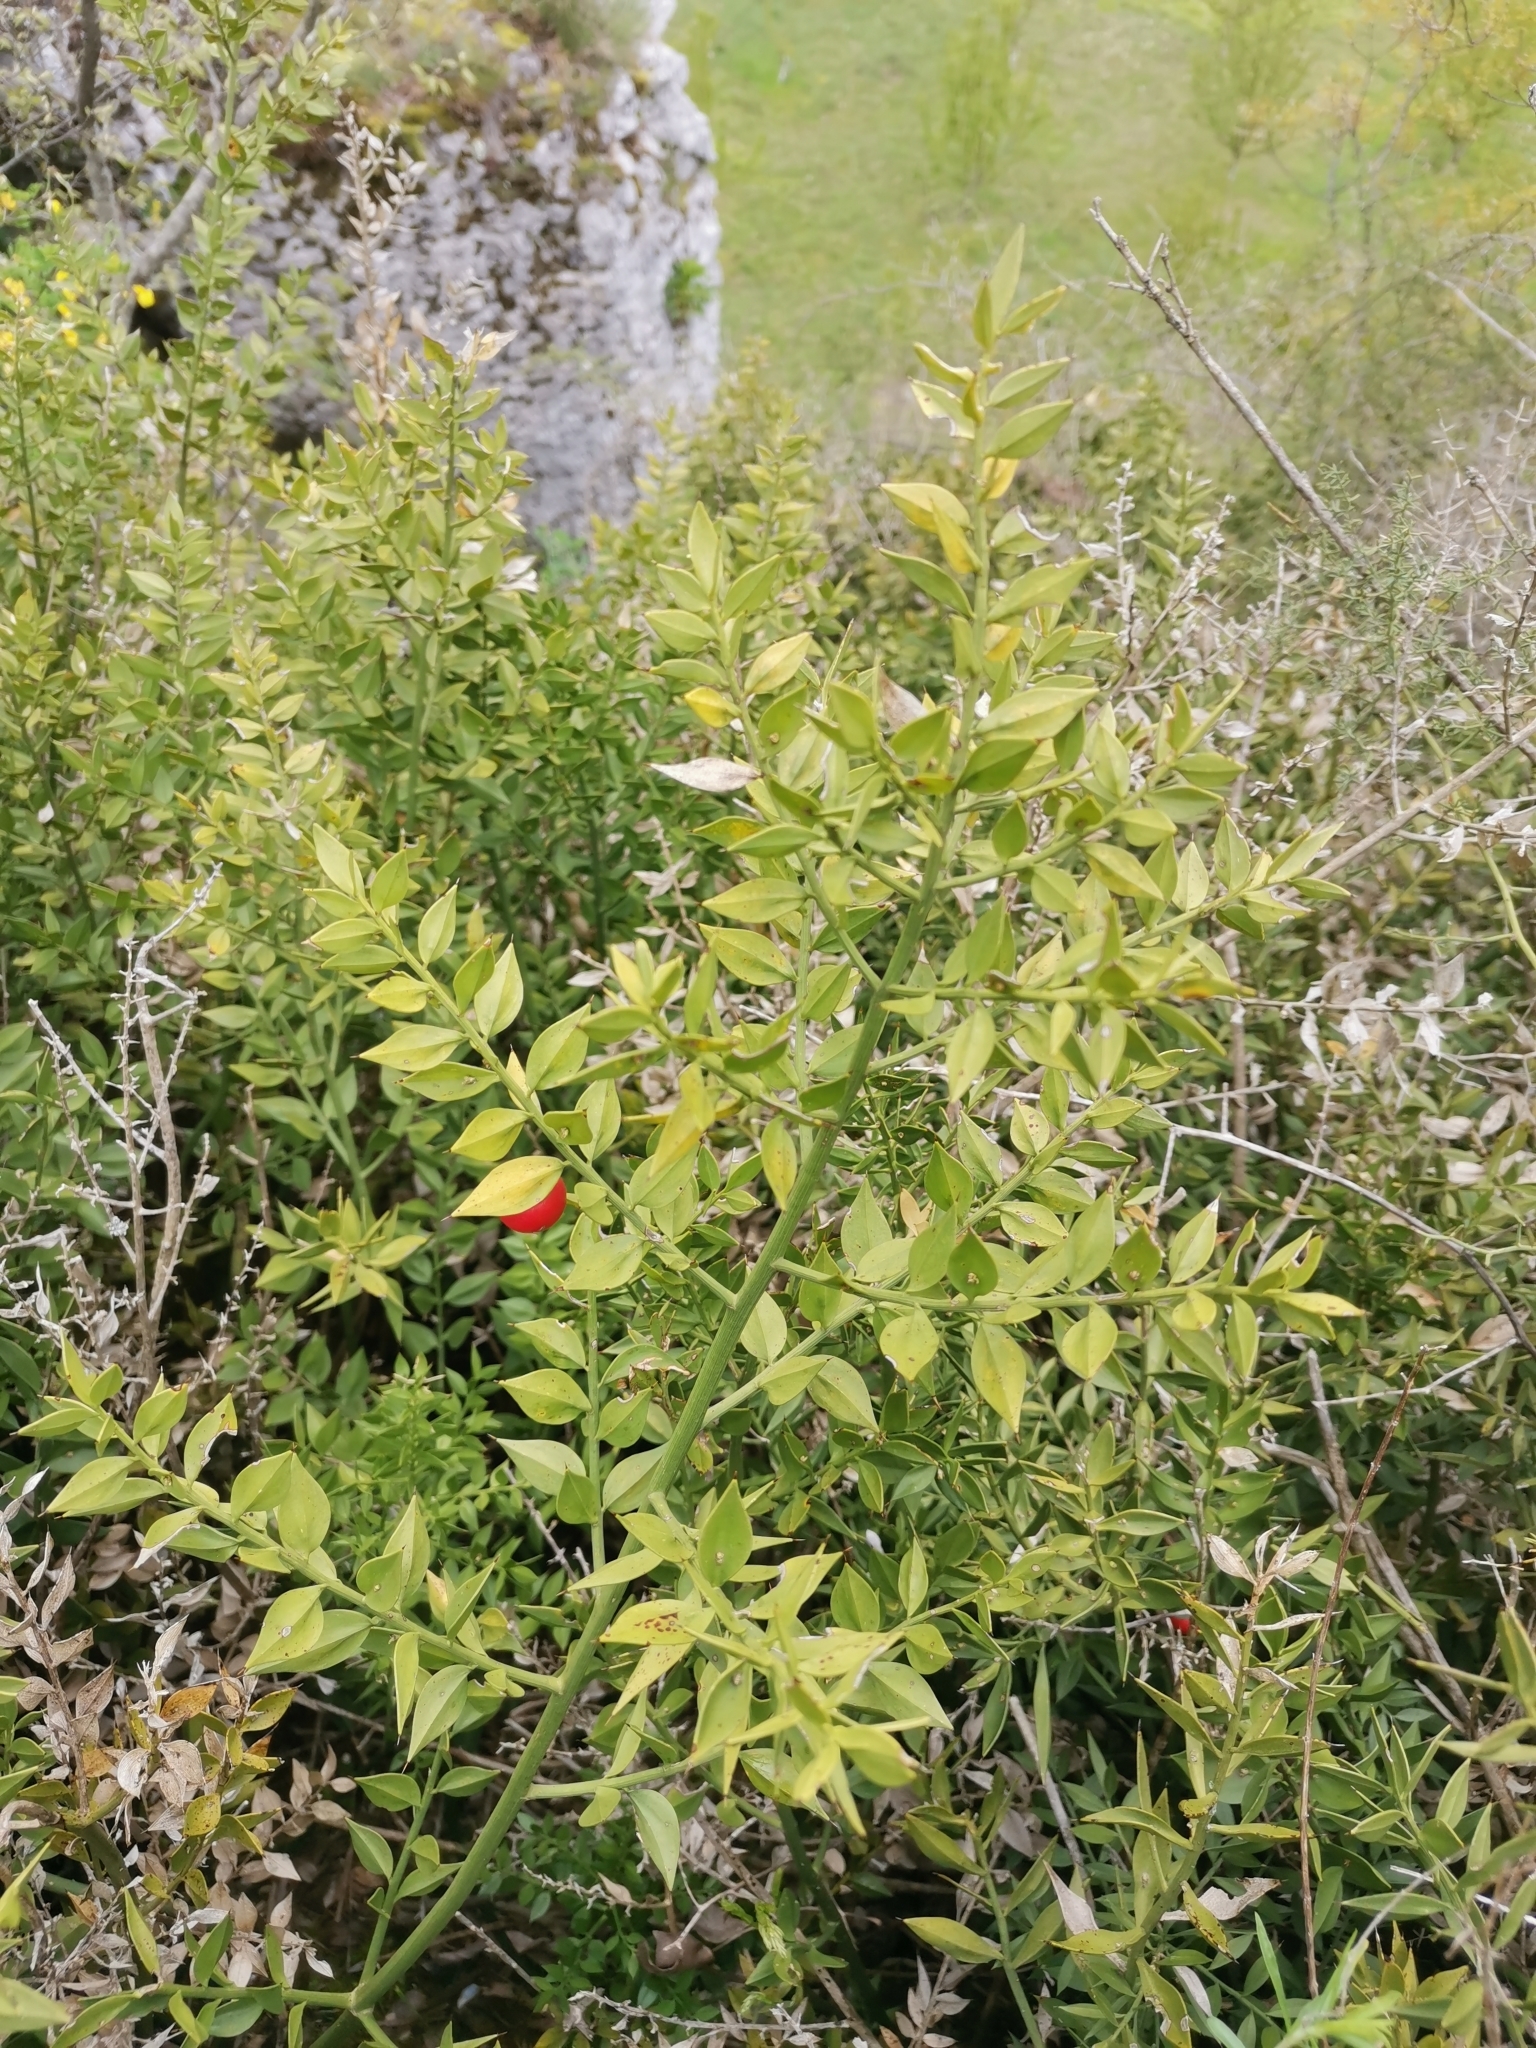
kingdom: Plantae
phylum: Tracheophyta
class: Liliopsida
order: Asparagales
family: Asparagaceae
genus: Ruscus
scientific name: Ruscus aculeatus
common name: Butcher's-broom
